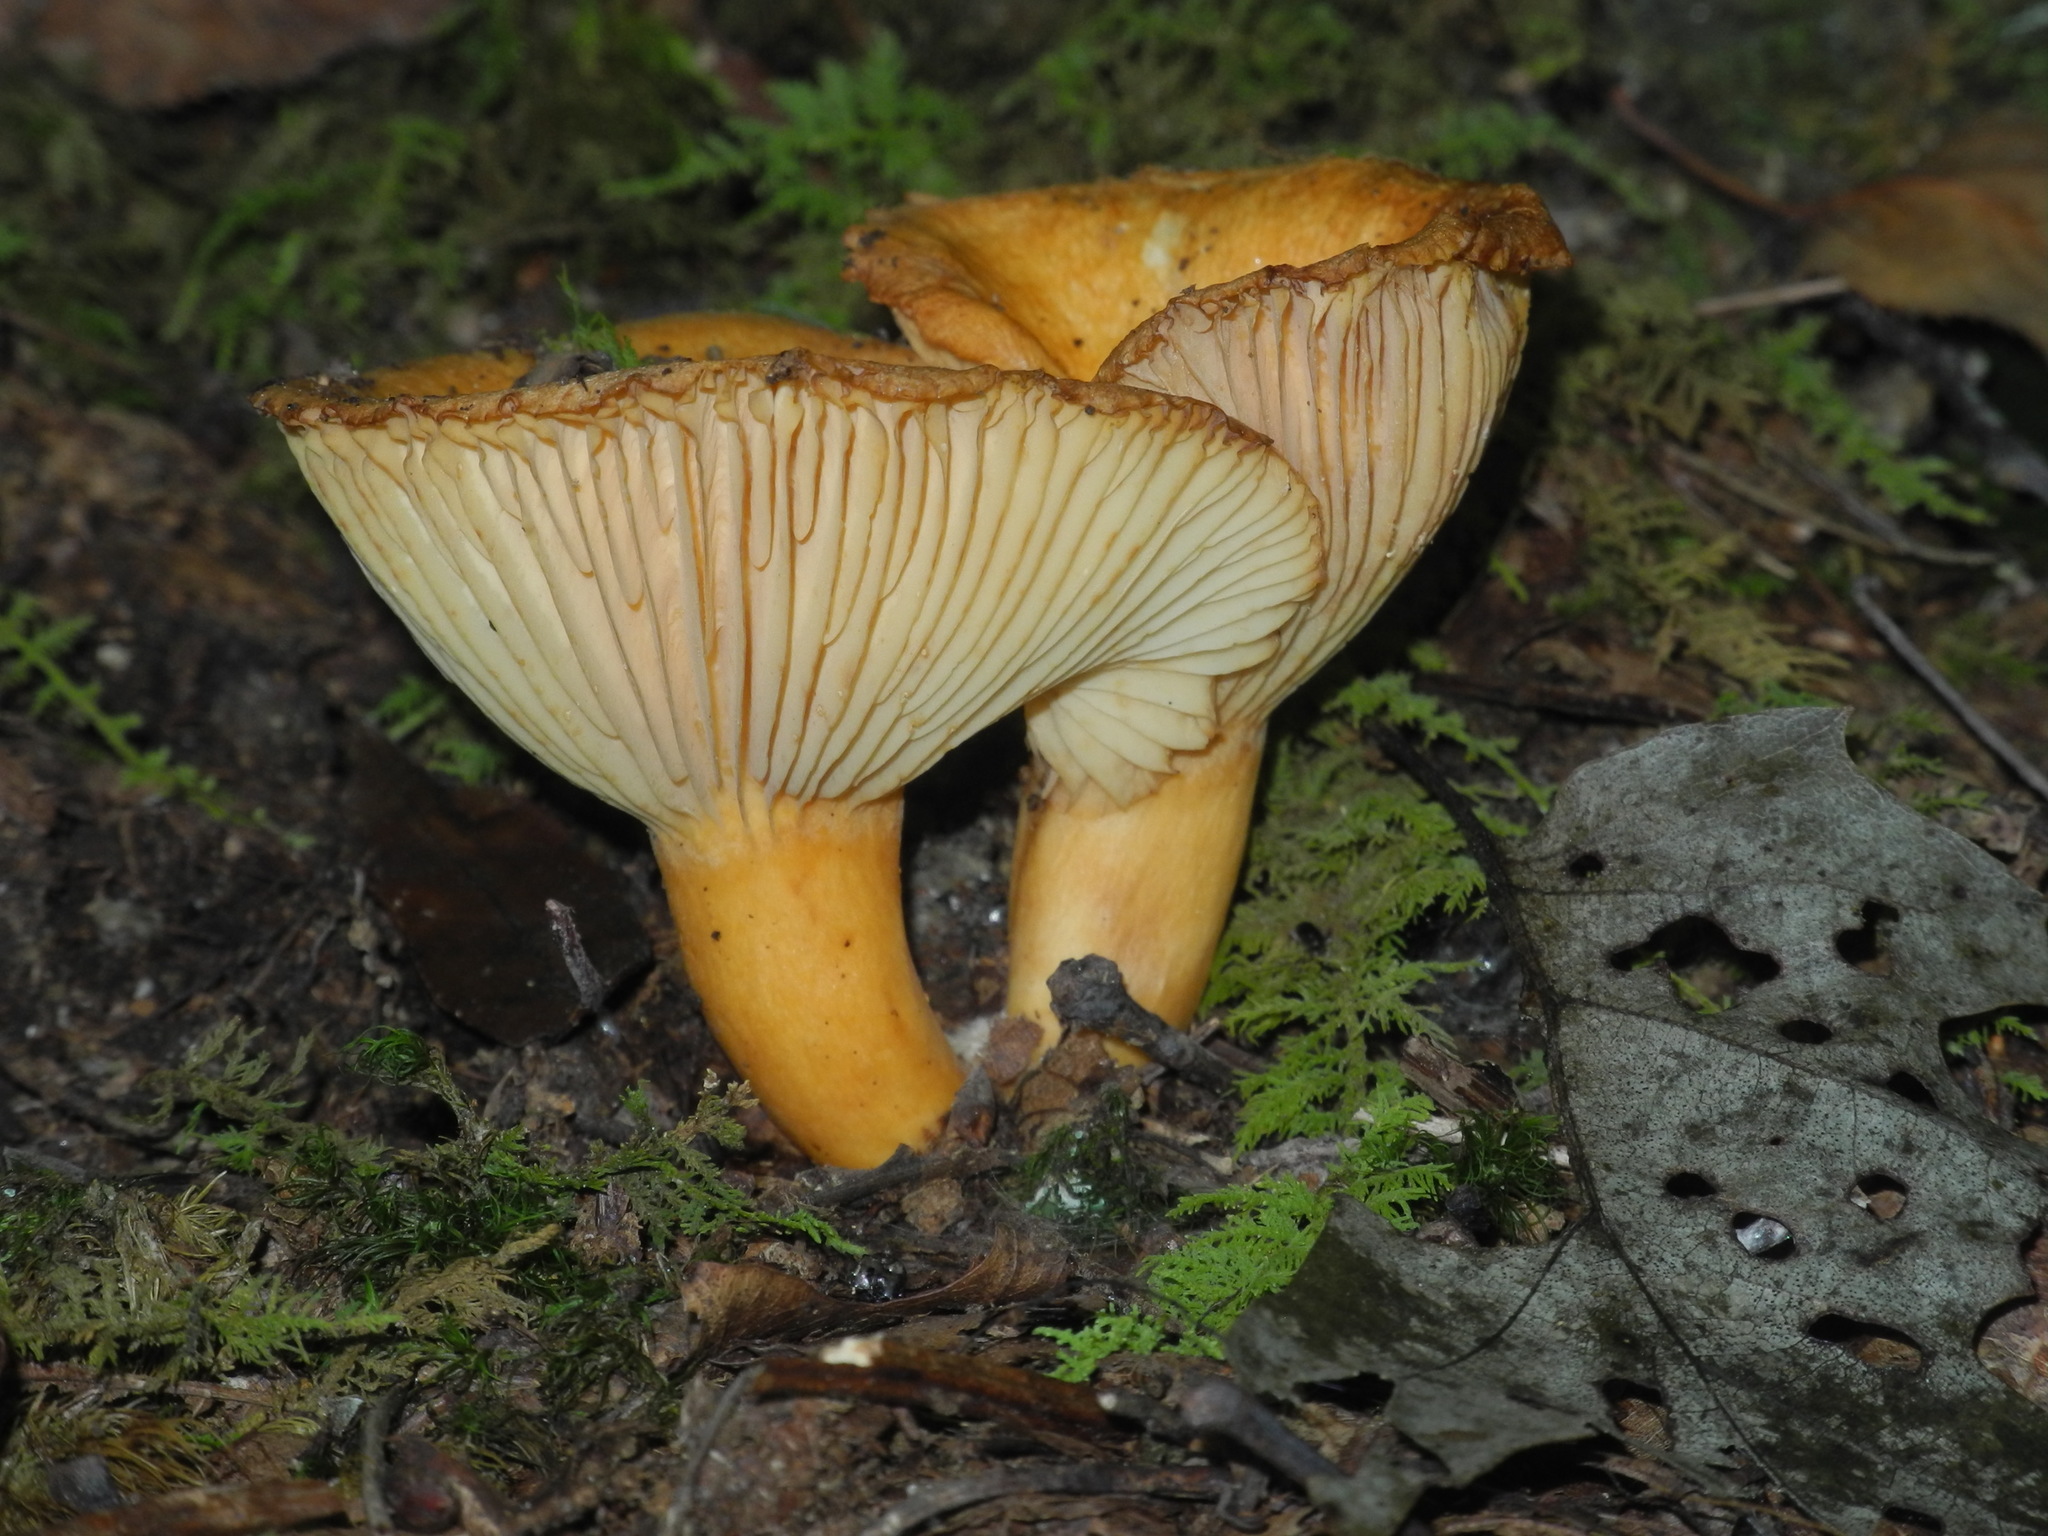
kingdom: Fungi
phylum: Basidiomycota
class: Agaricomycetes
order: Russulales
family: Russulaceae
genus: Lactarius
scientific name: Lactarius croceus
